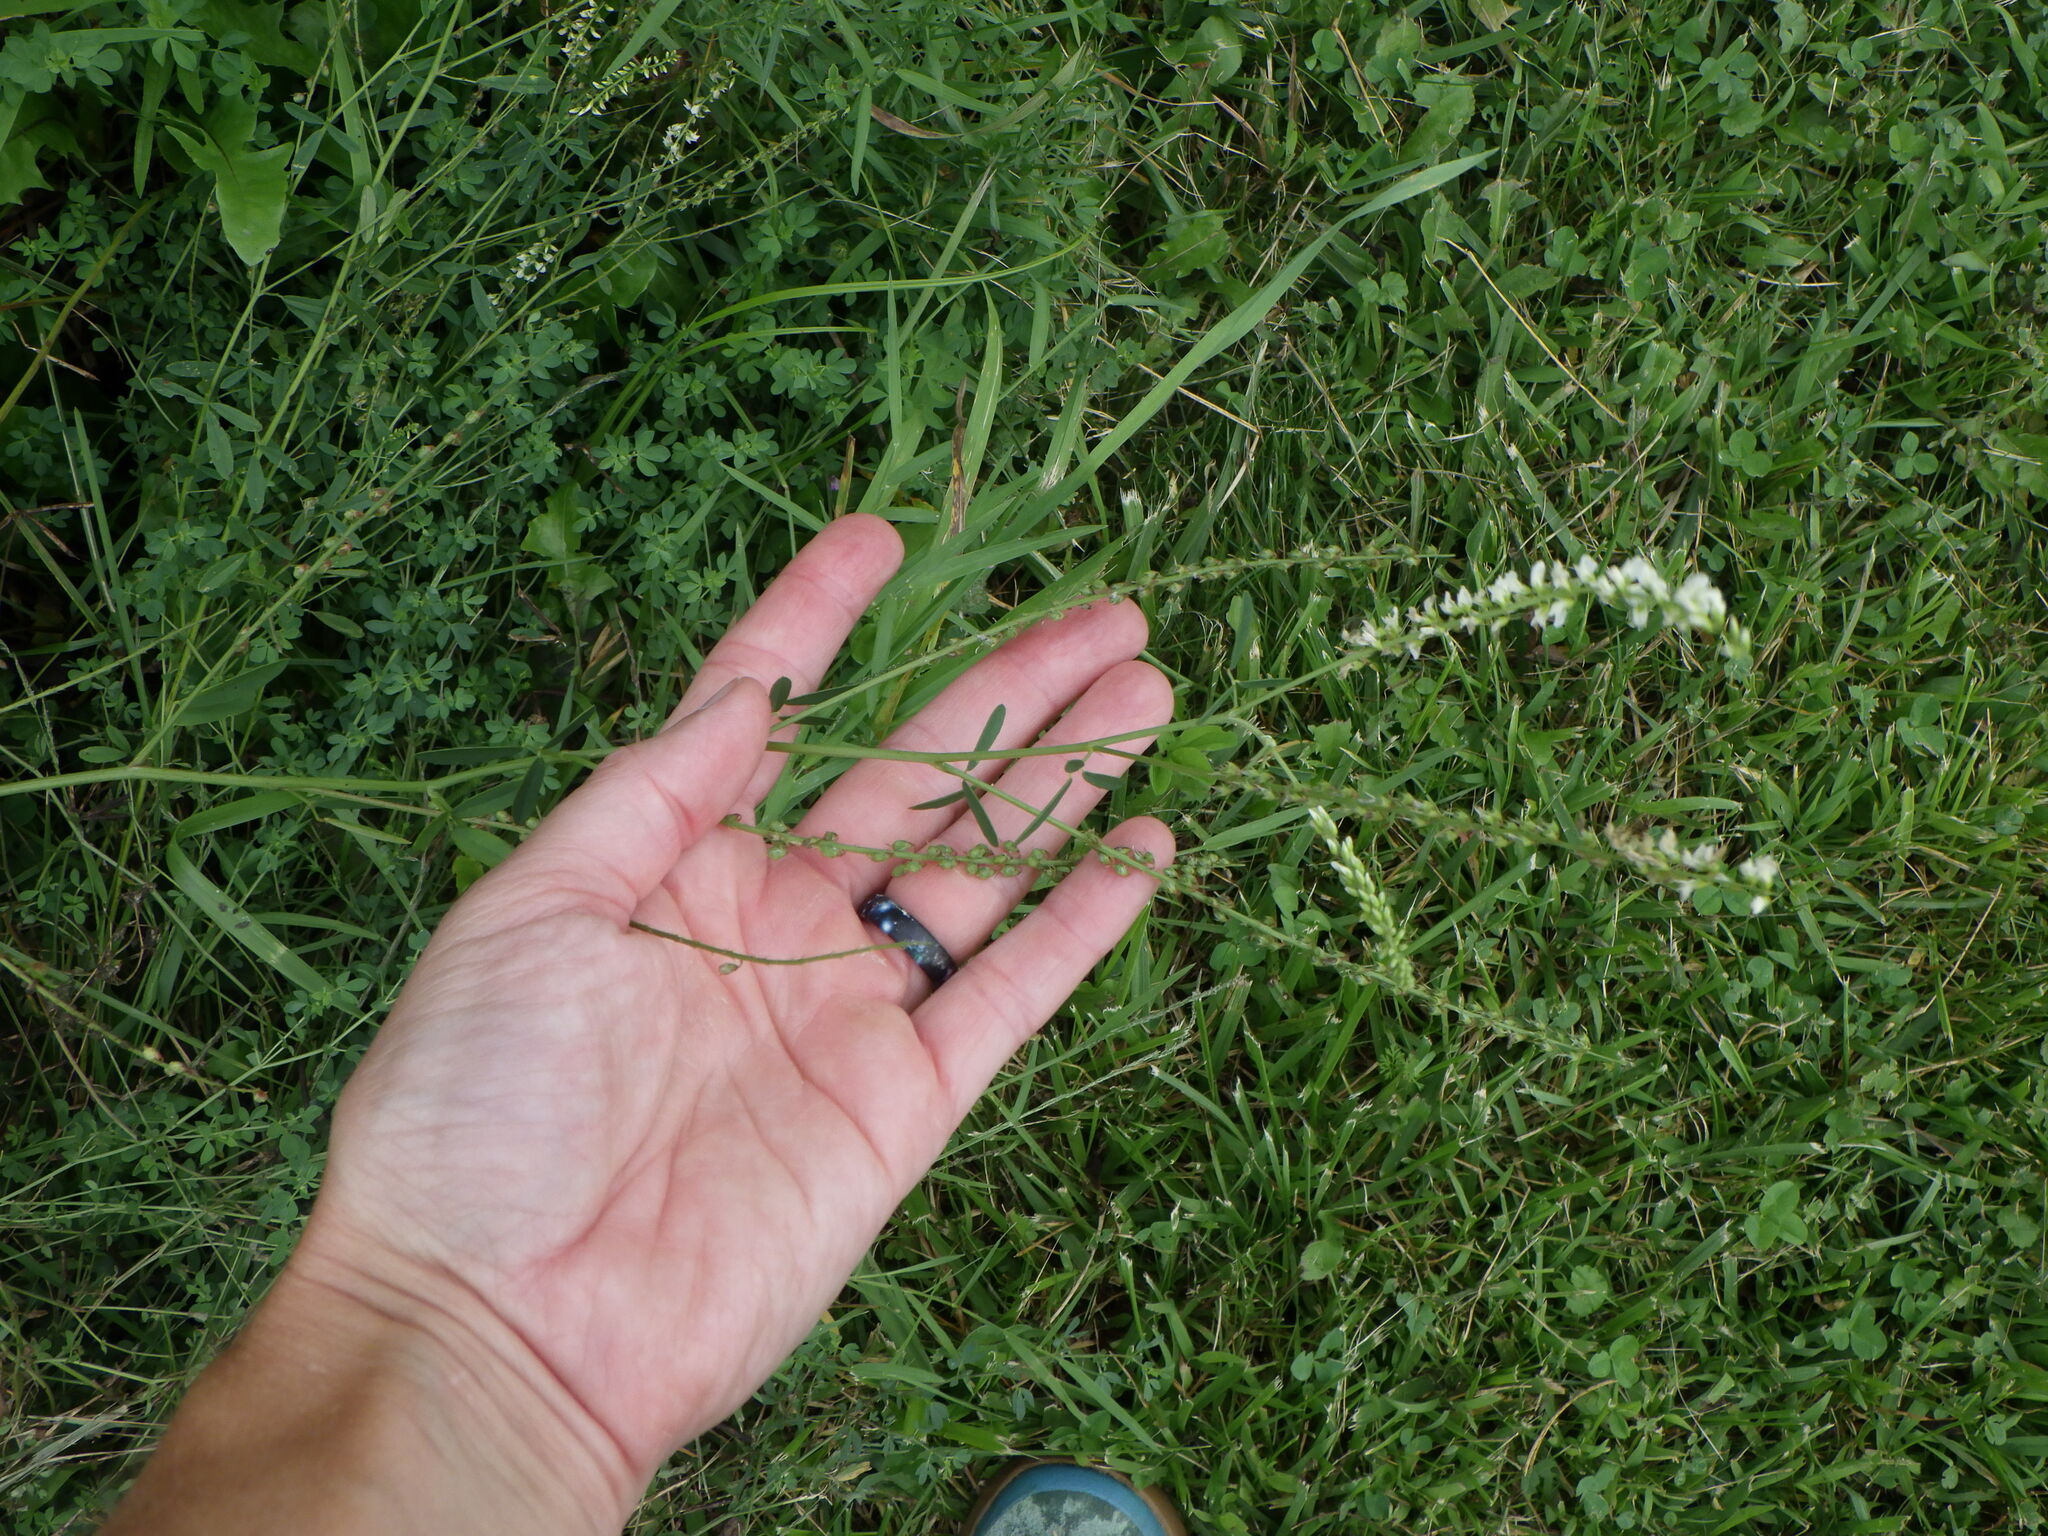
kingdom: Plantae
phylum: Tracheophyta
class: Magnoliopsida
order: Fabales
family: Fabaceae
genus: Melilotus
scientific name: Melilotus albus
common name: White melilot
